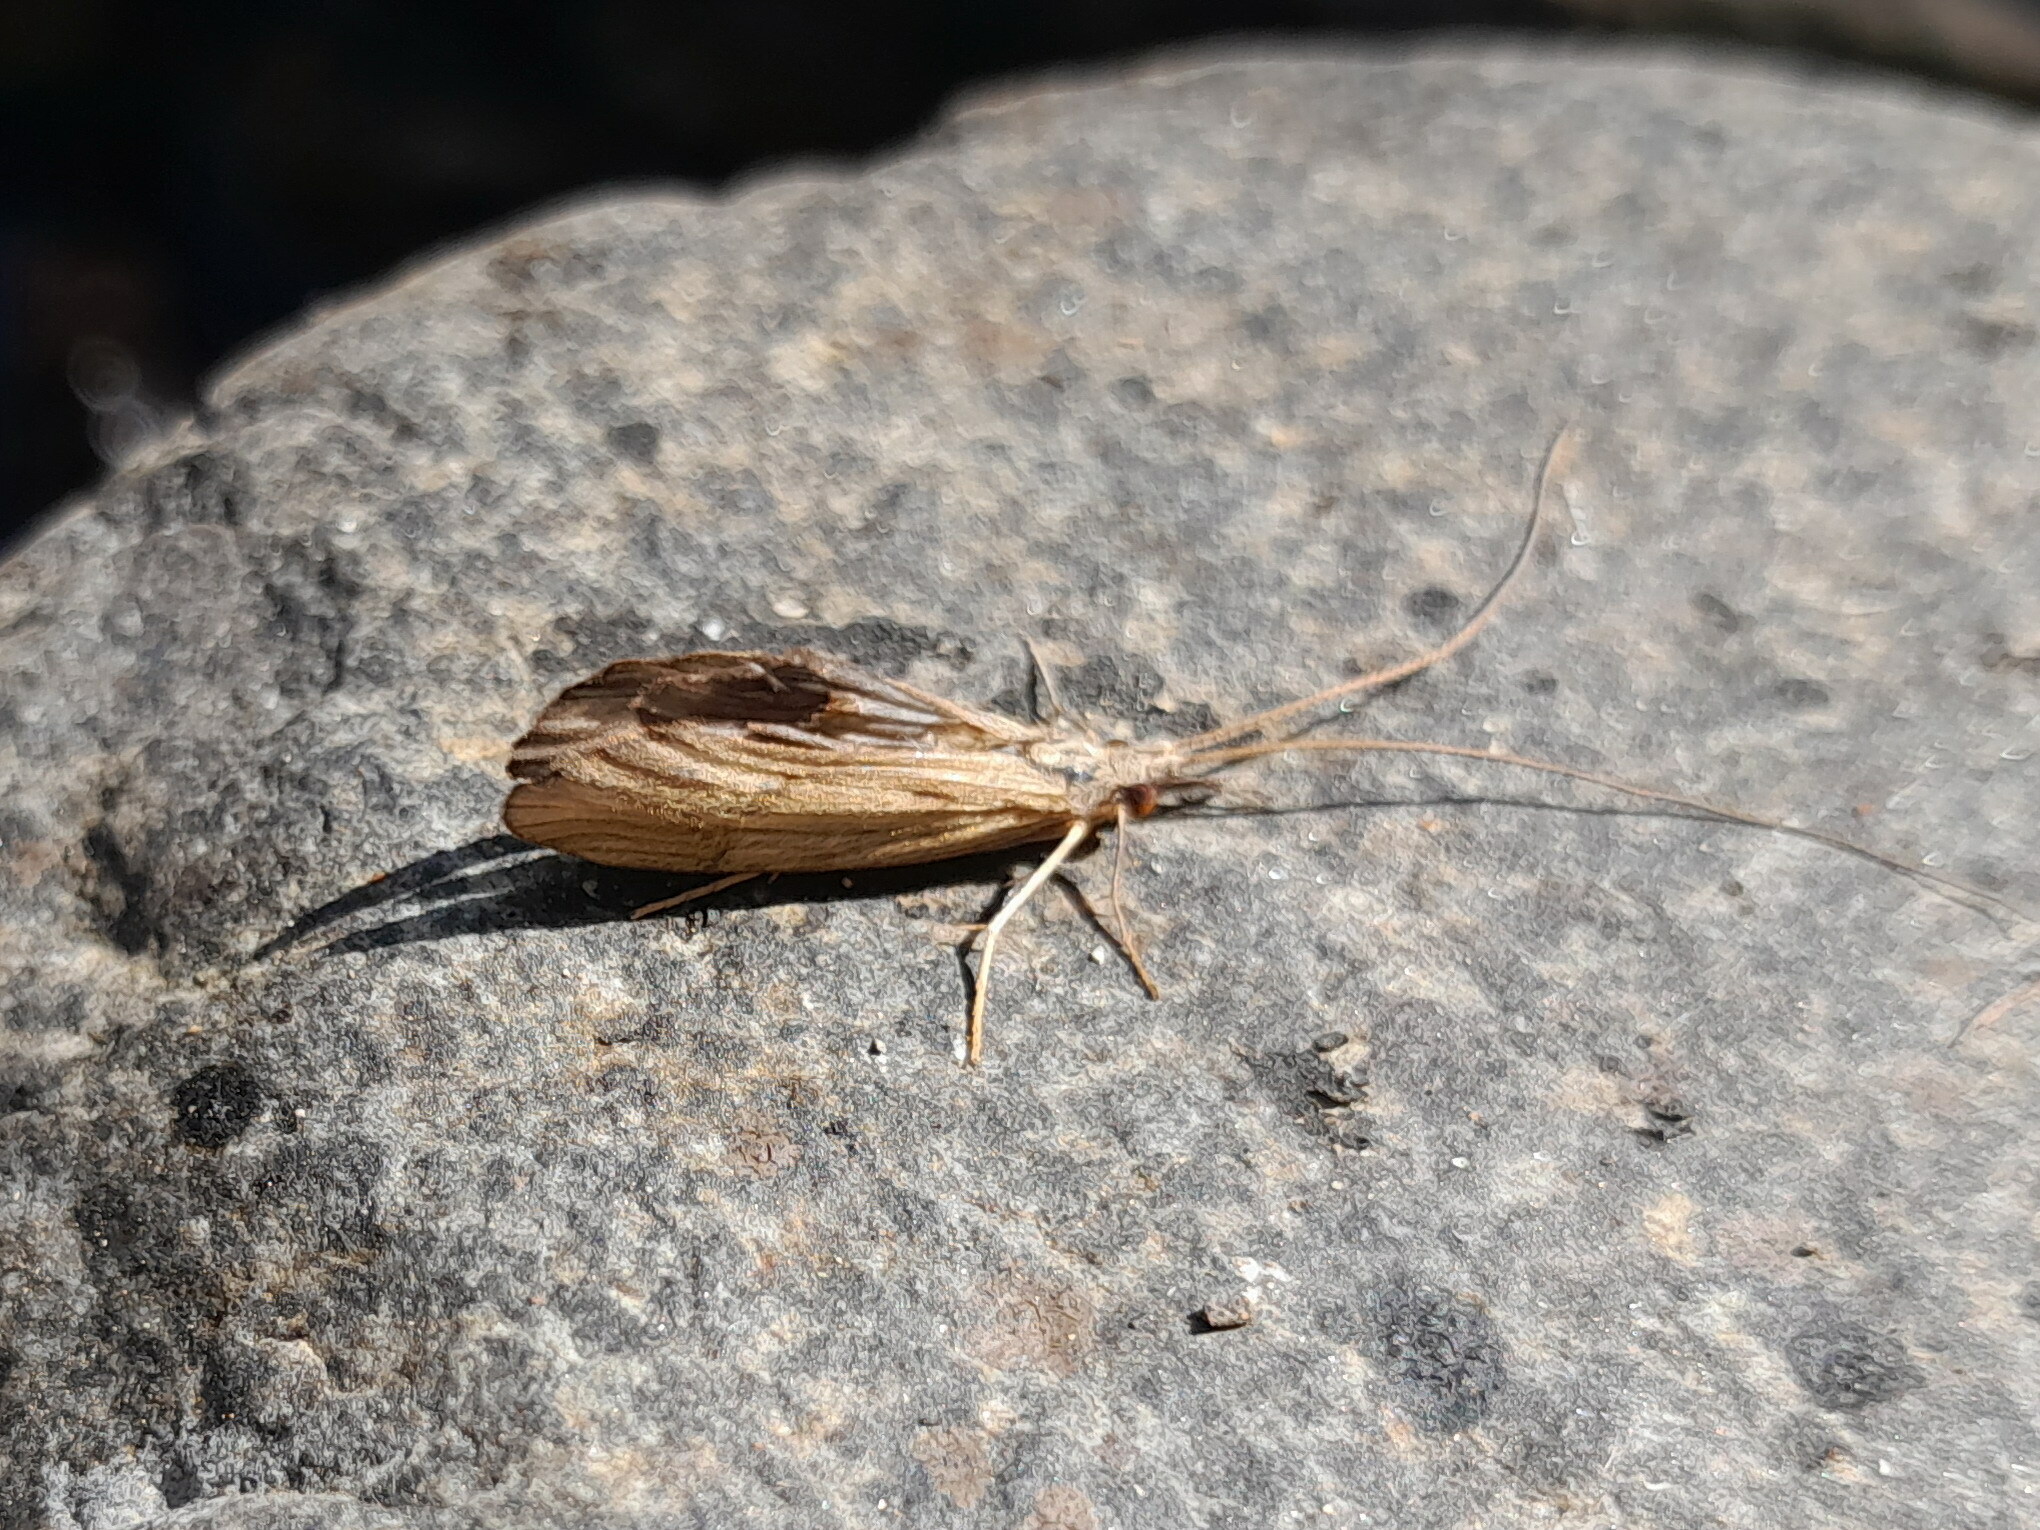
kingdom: Animalia
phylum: Arthropoda
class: Insecta
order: Trichoptera
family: Odontoceridae
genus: Odontocerum
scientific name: Odontocerum albicorne
